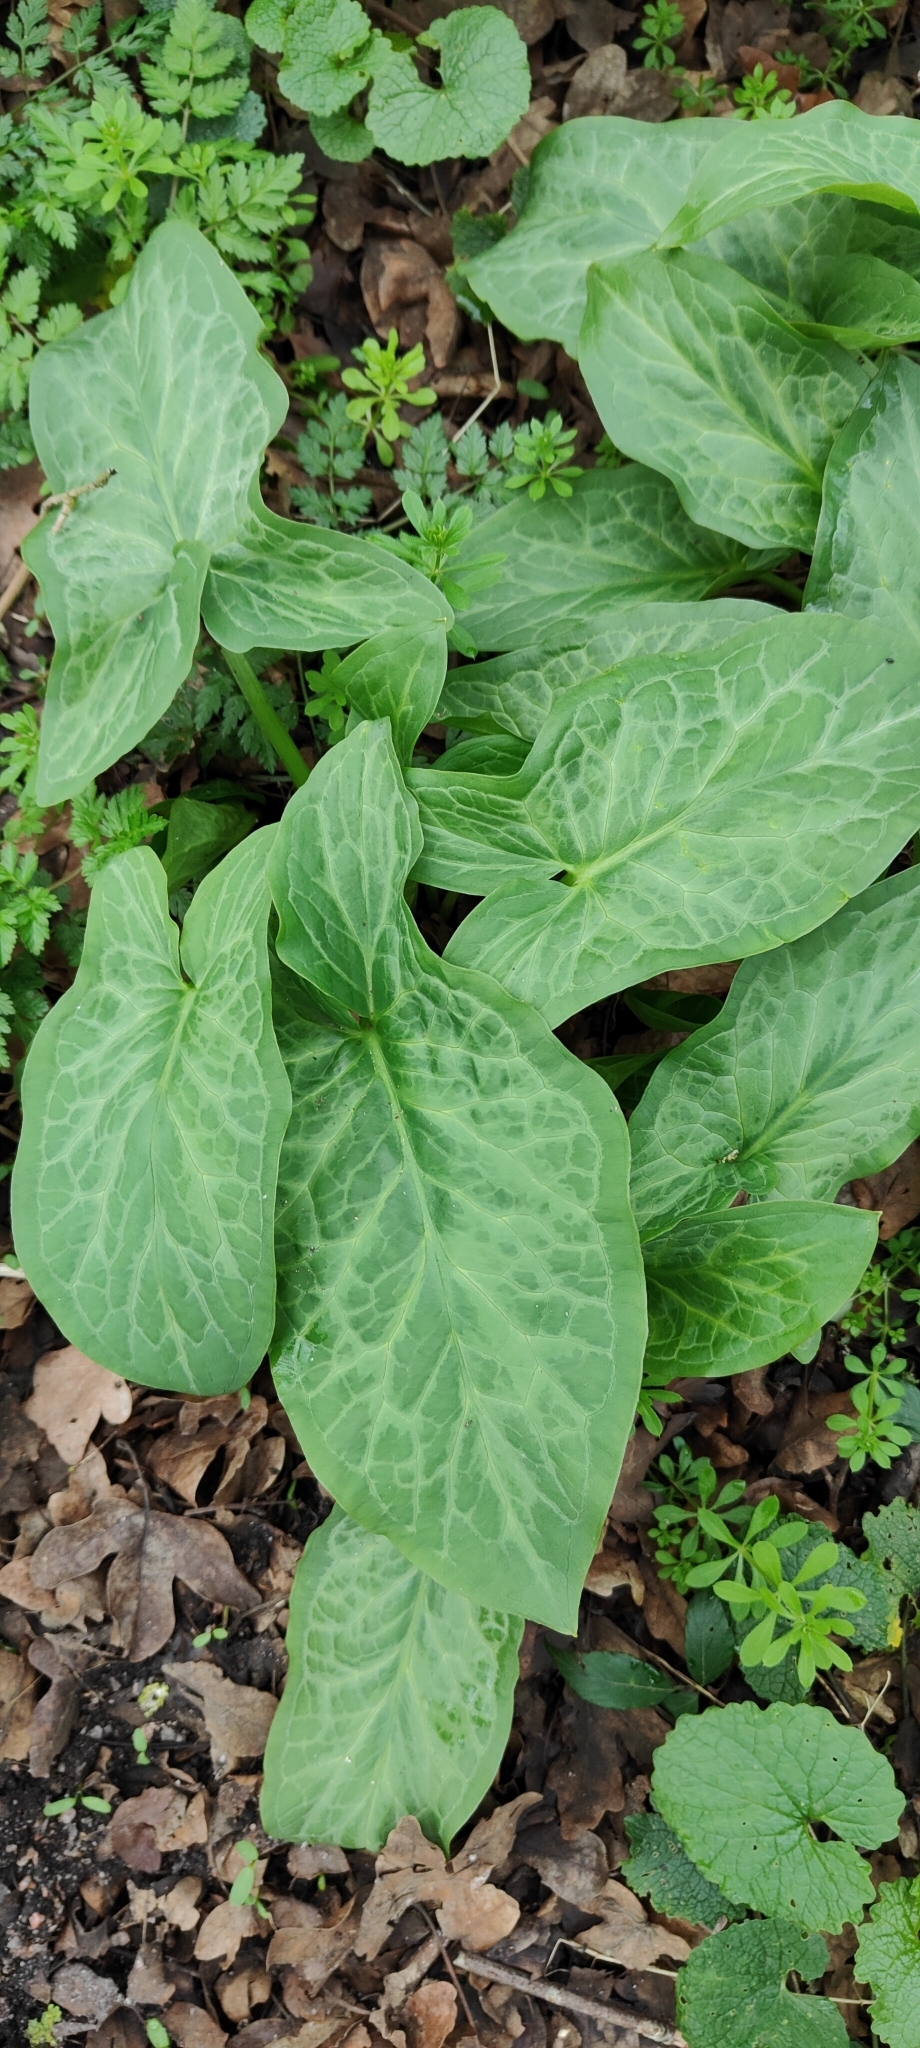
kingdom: Plantae
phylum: Tracheophyta
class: Liliopsida
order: Alismatales
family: Araceae
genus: Arum
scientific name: Arum italicum
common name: Italian lords-and-ladies
